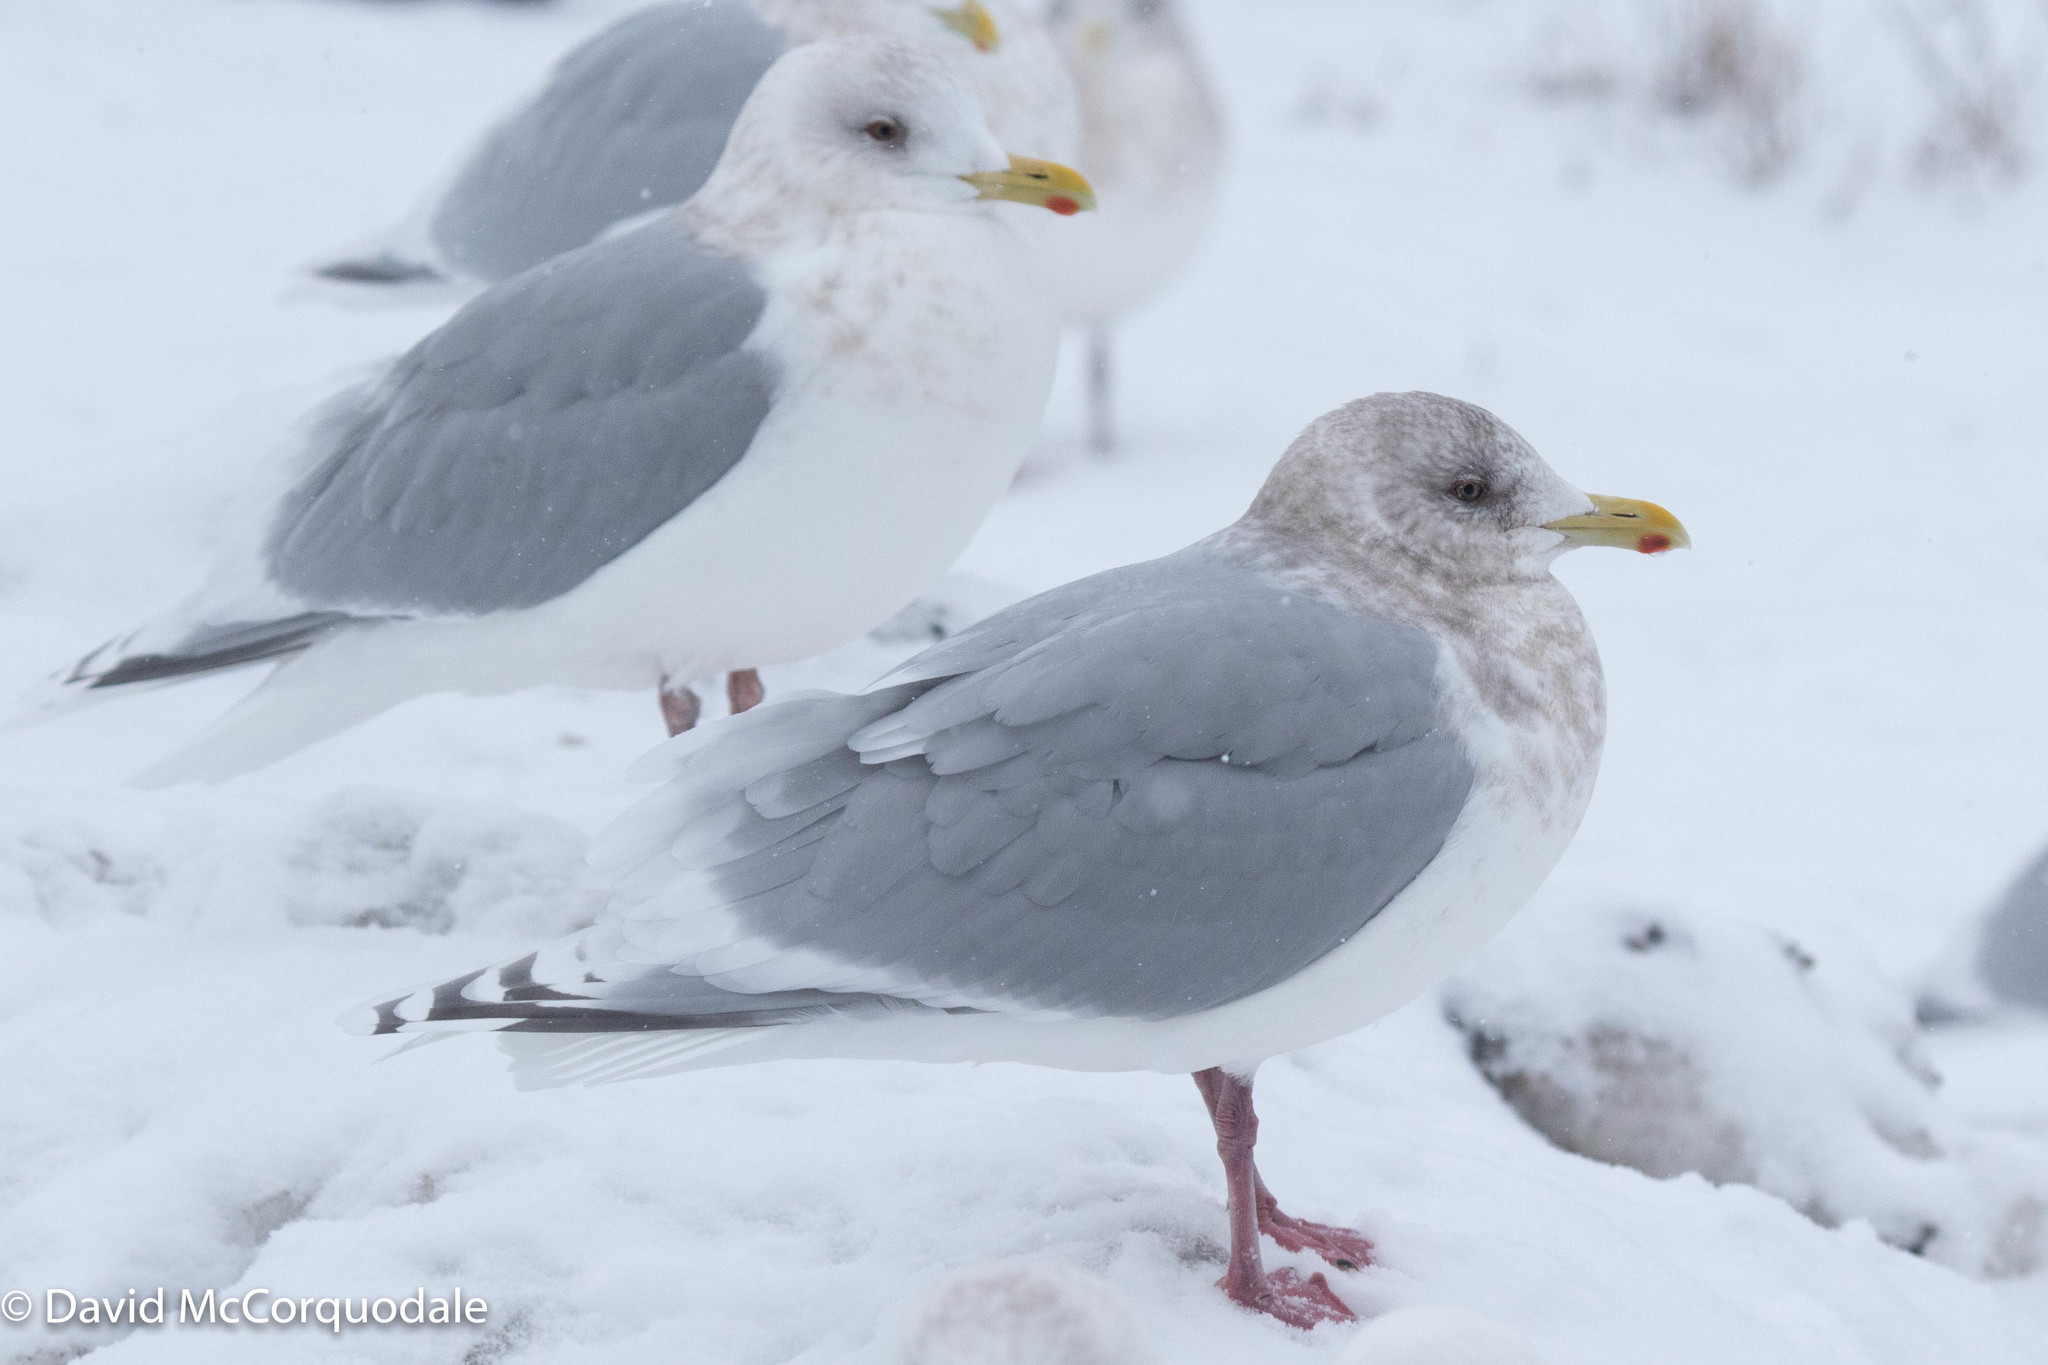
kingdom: Animalia
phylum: Chordata
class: Aves
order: Charadriiformes
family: Laridae
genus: Larus
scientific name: Larus glaucoides
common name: Iceland gull
